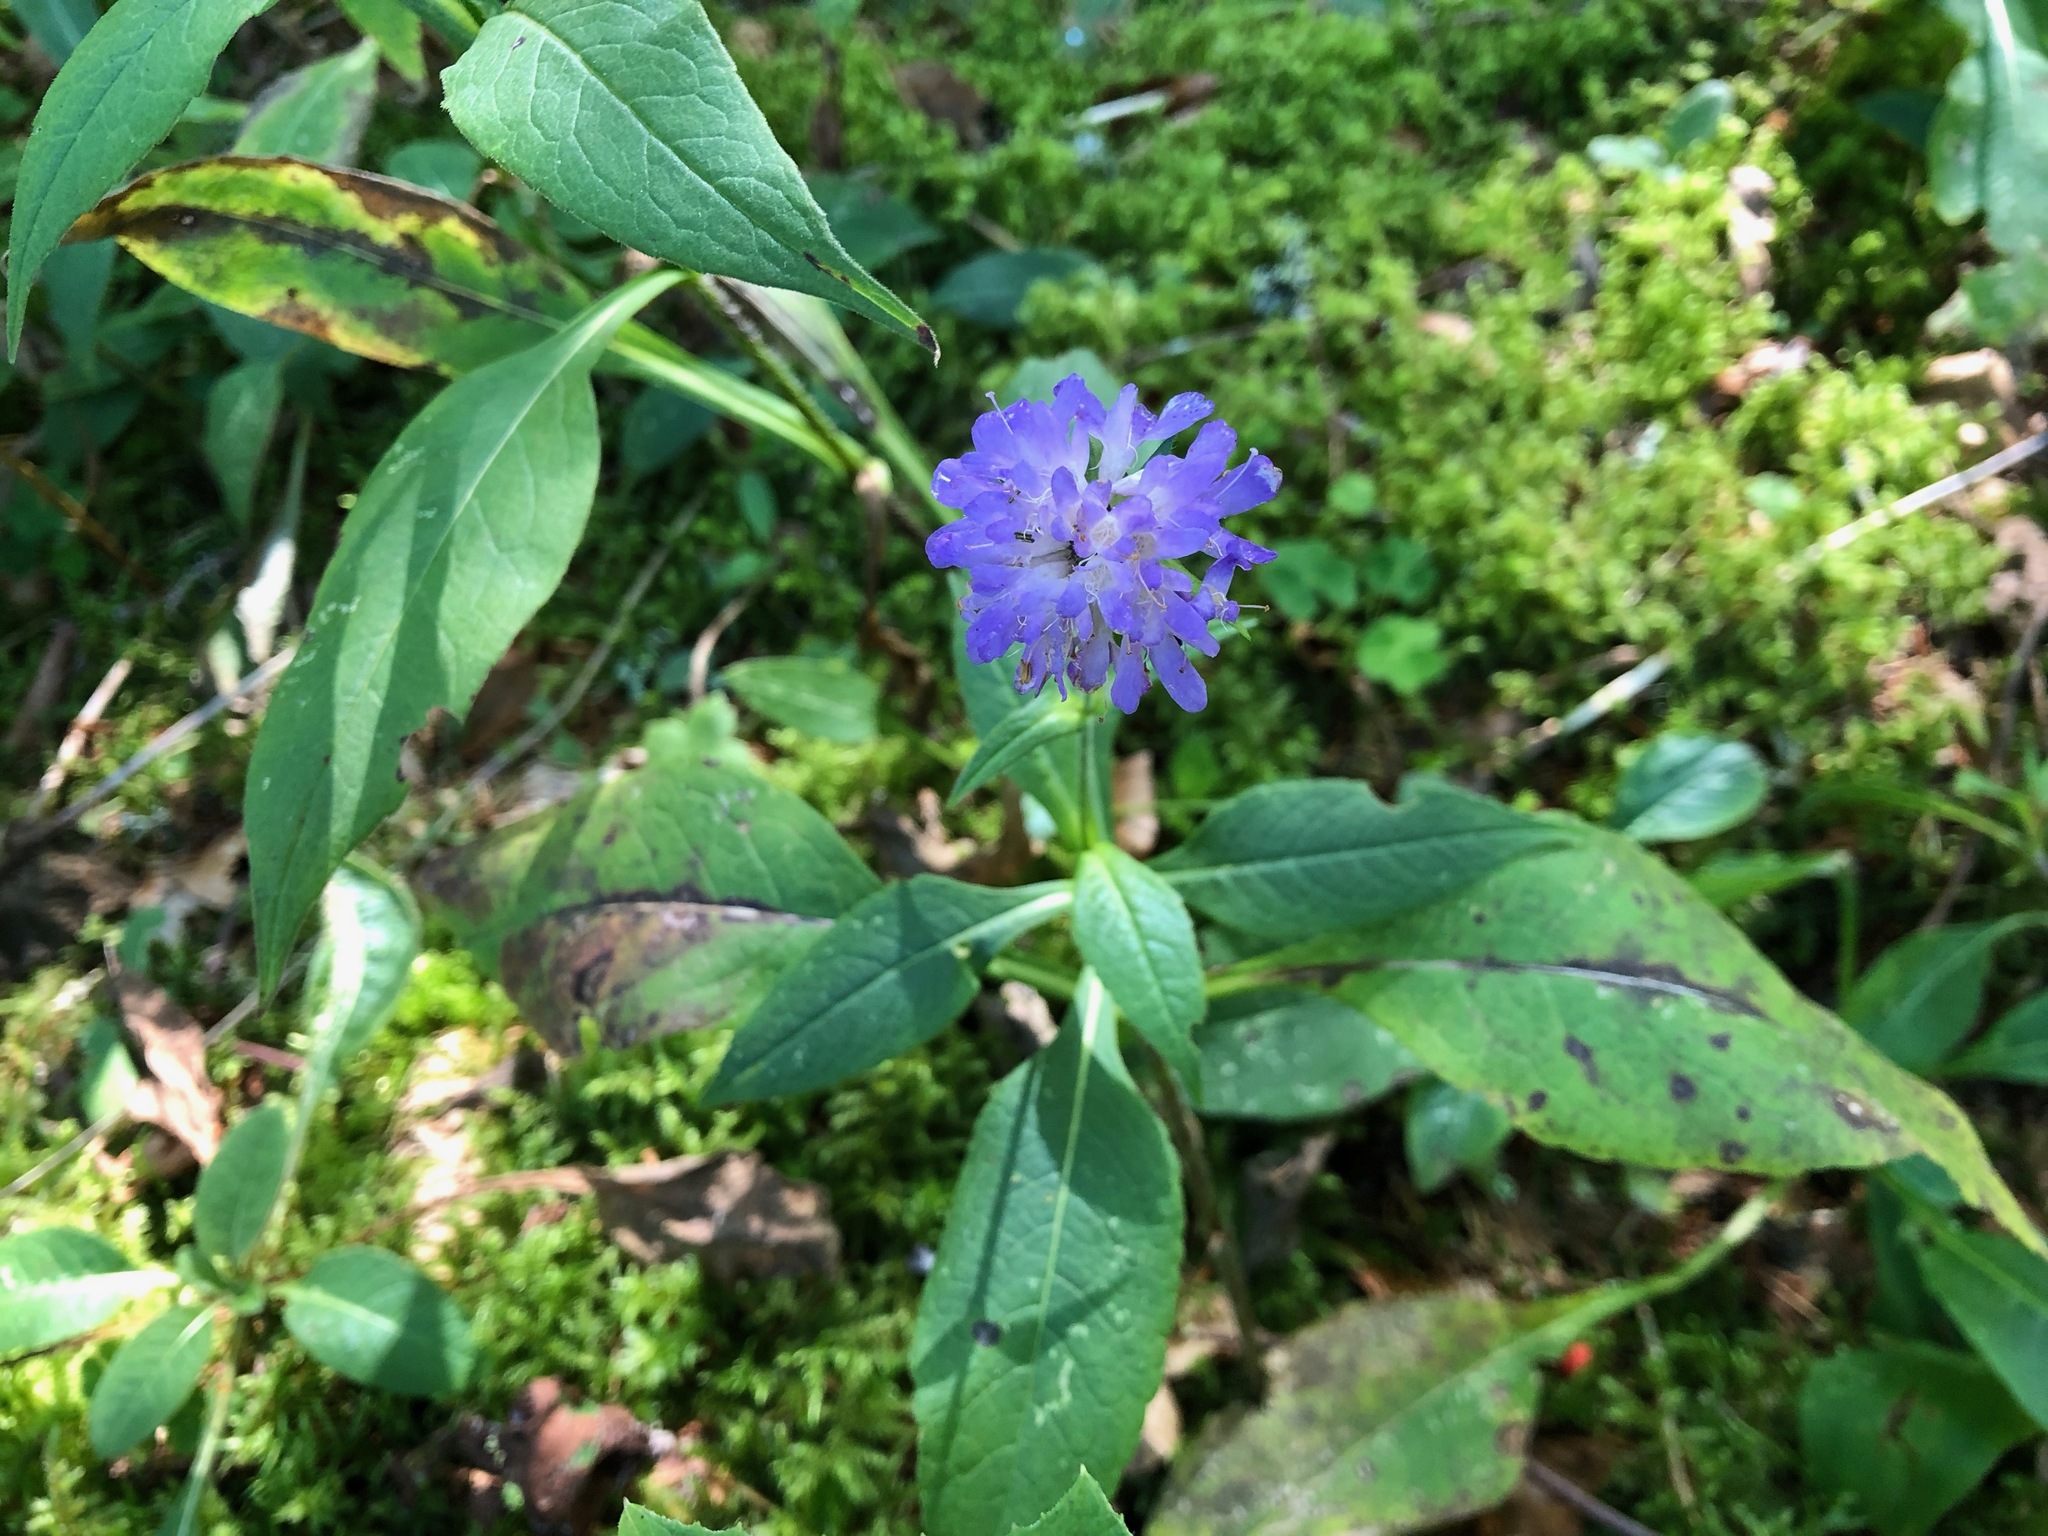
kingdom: Plantae
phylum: Tracheophyta
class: Magnoliopsida
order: Dipsacales
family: Caprifoliaceae
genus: Knautia
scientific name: Knautia dipsacifolia
